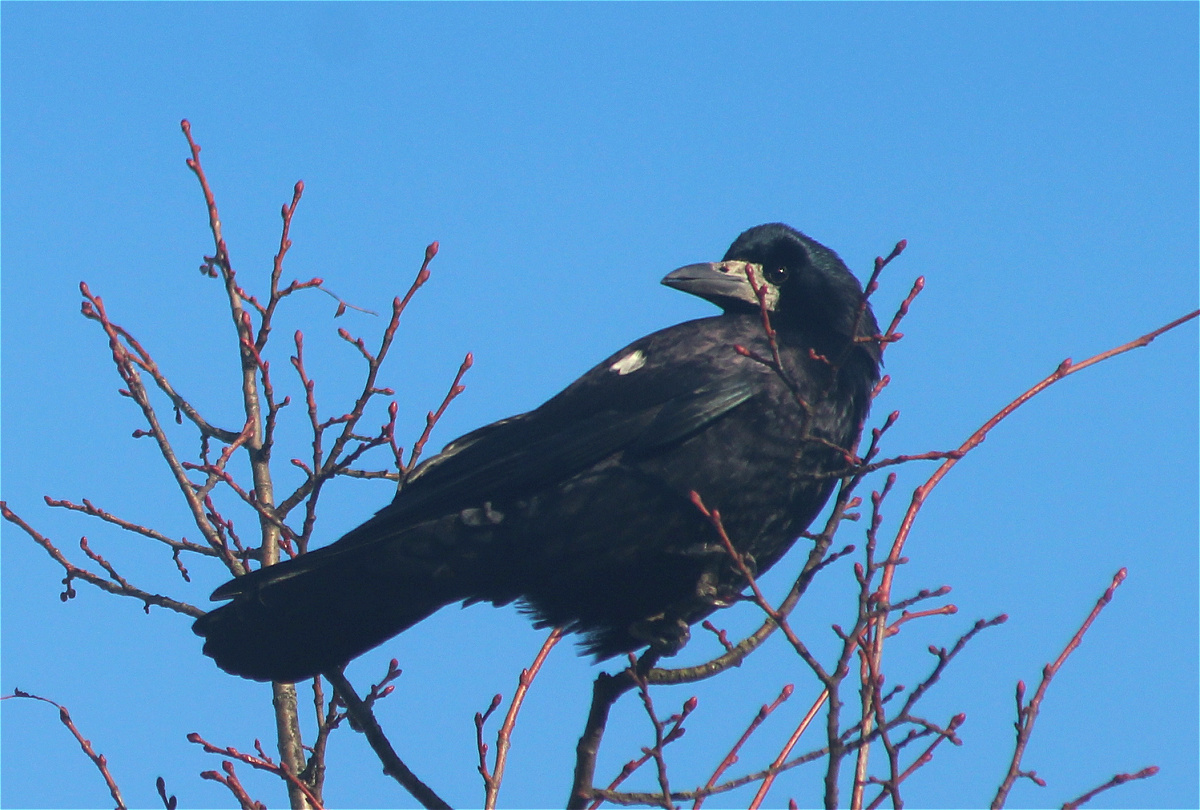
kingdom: Animalia
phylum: Chordata
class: Aves
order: Passeriformes
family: Corvidae
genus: Corvus
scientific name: Corvus frugilegus
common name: Rook
